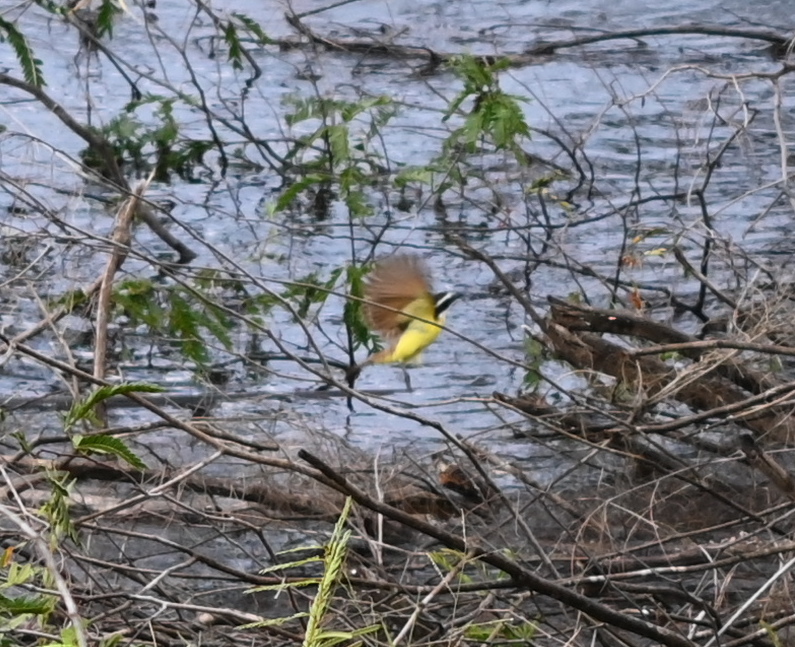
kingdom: Animalia
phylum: Chordata
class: Aves
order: Passeriformes
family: Tyrannidae
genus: Pitangus
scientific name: Pitangus sulphuratus
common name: Great kiskadee
